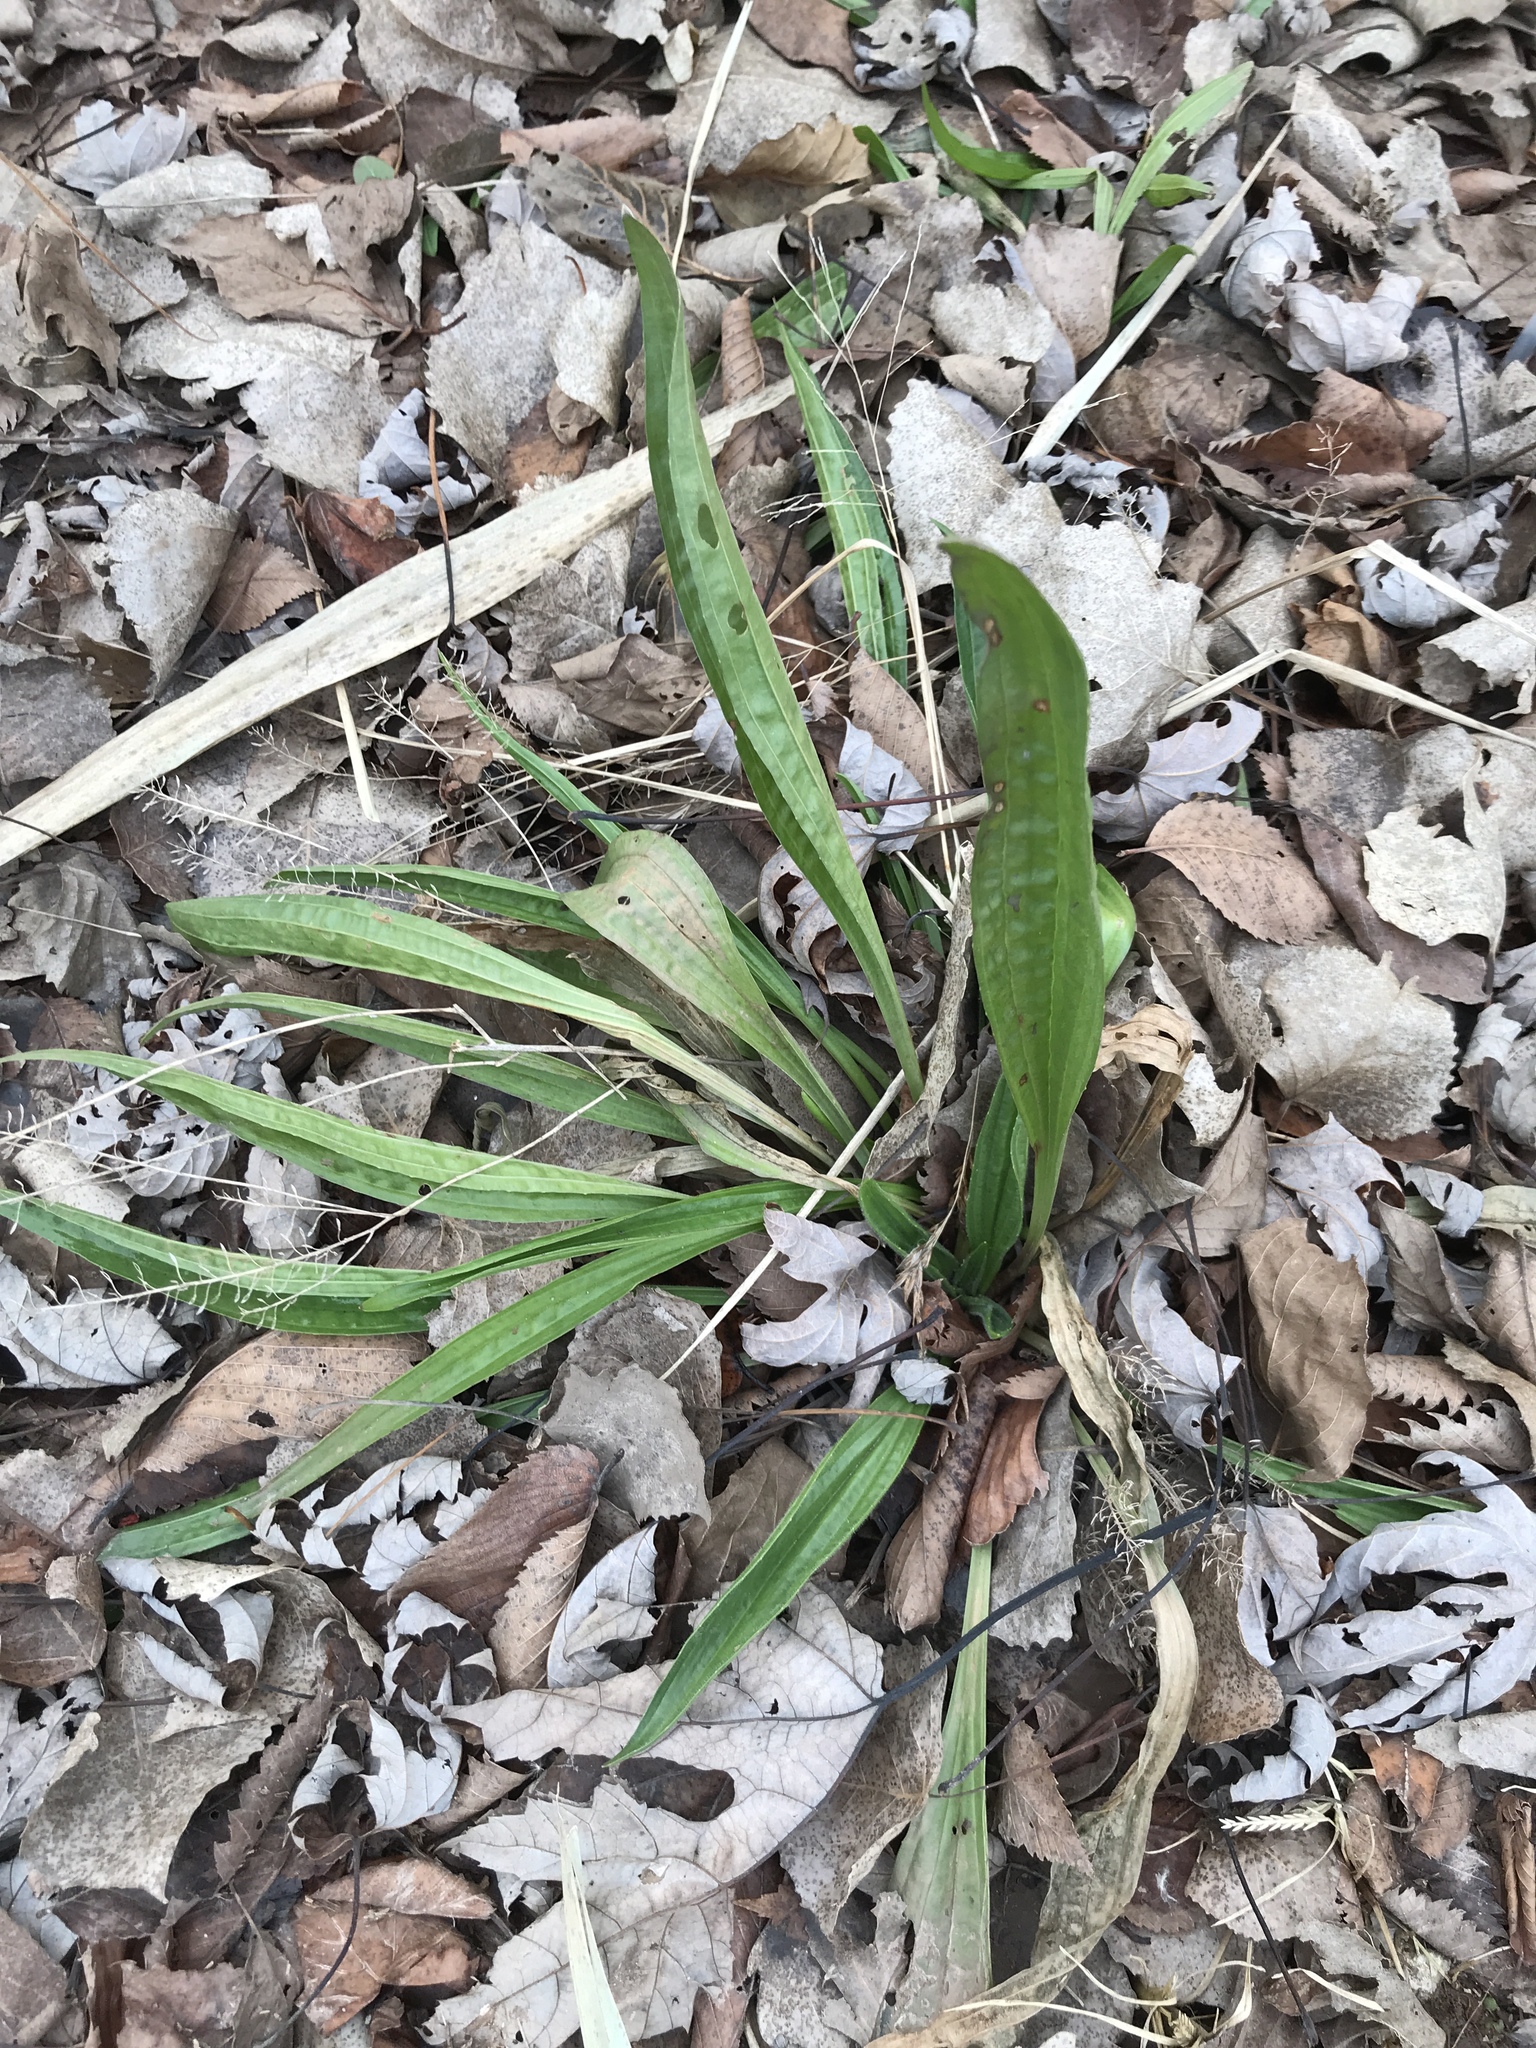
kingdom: Plantae
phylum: Tracheophyta
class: Magnoliopsida
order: Lamiales
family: Plantaginaceae
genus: Plantago
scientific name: Plantago lanceolata
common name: Ribwort plantain
